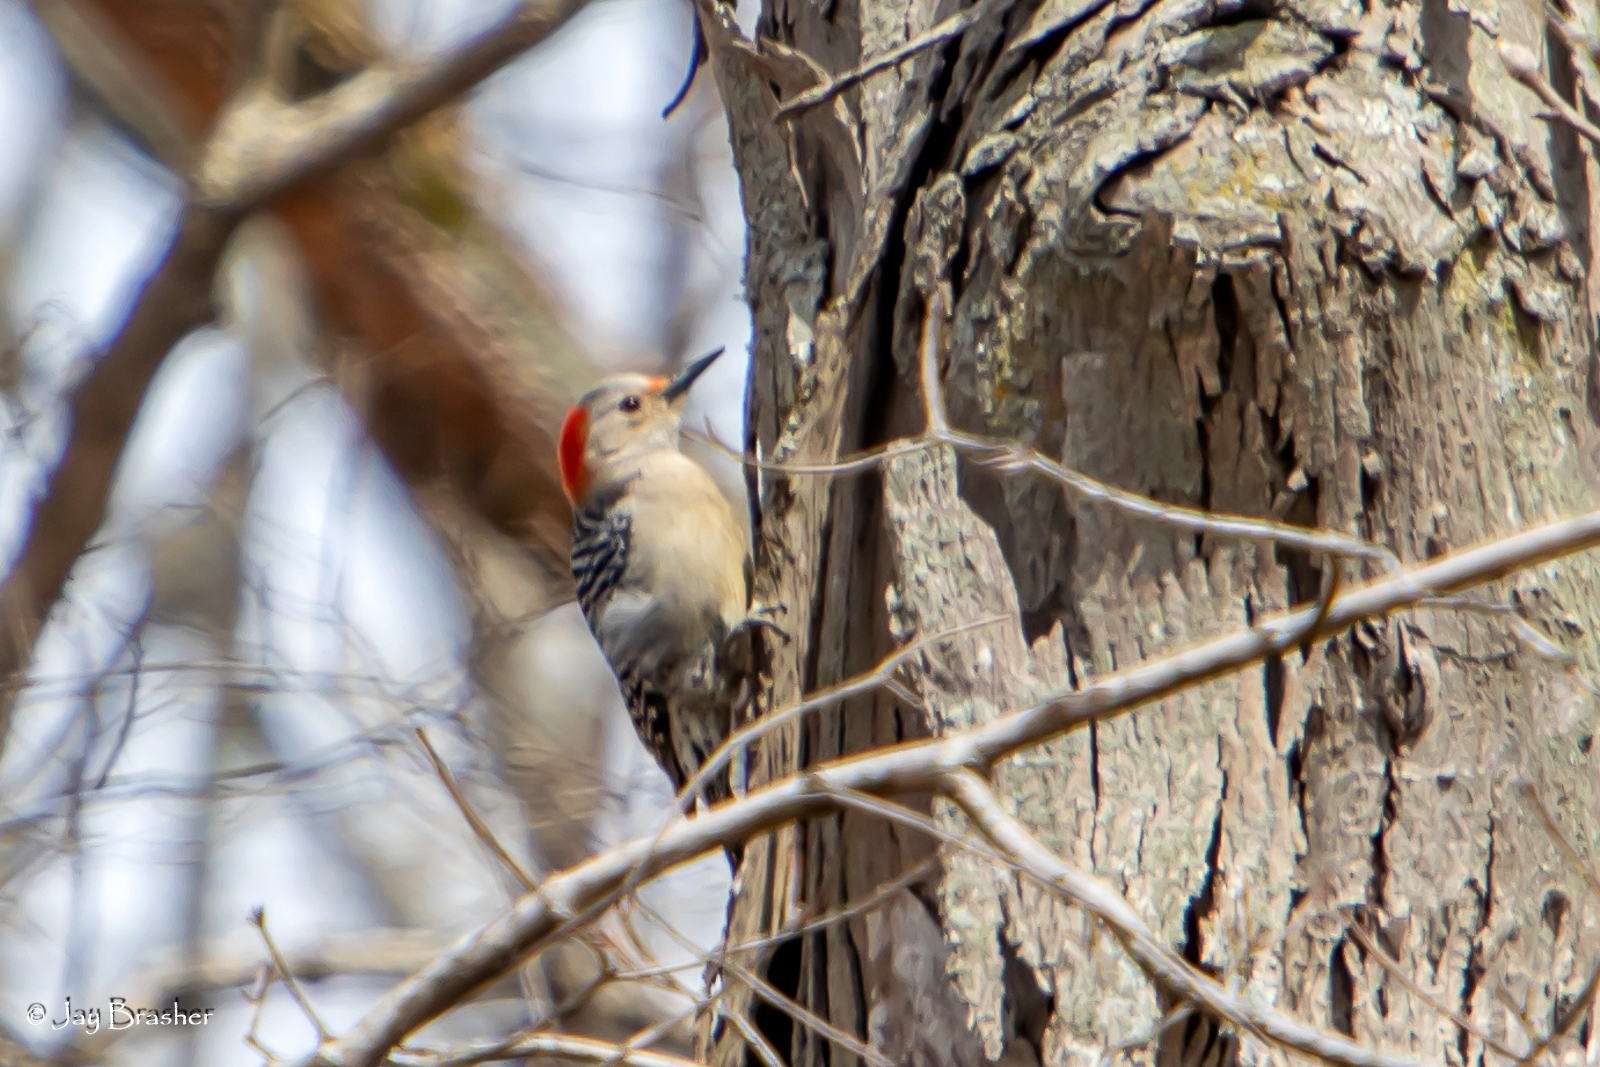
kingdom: Animalia
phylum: Chordata
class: Aves
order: Piciformes
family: Picidae
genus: Melanerpes
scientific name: Melanerpes carolinus
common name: Red-bellied woodpecker
